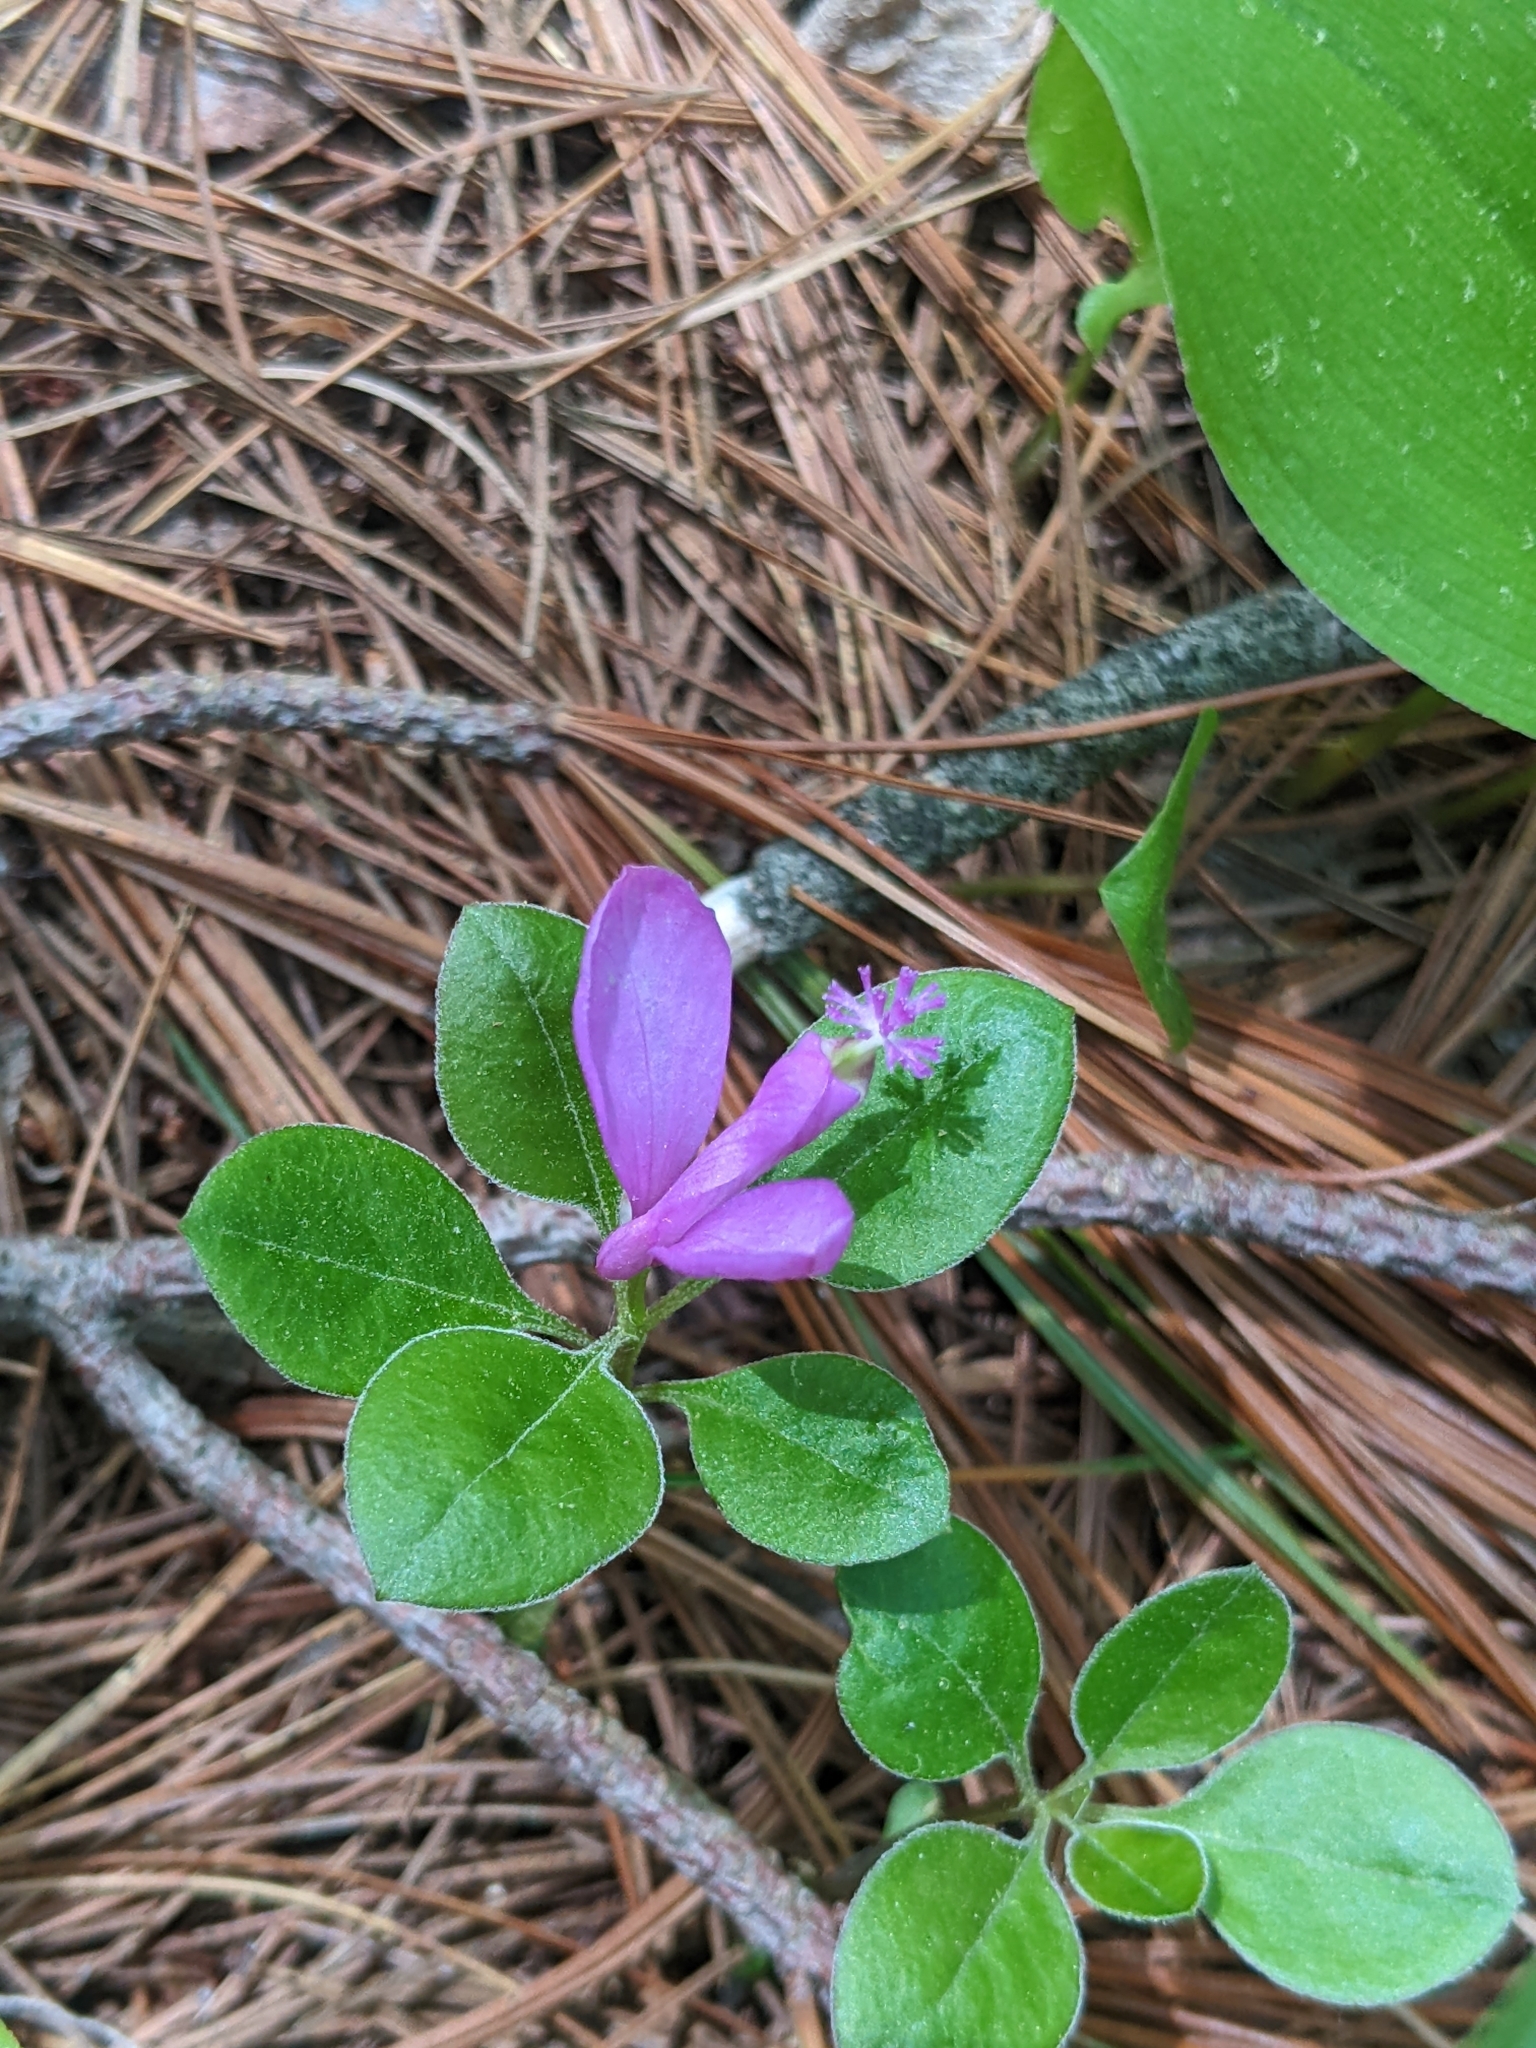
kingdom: Plantae
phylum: Tracheophyta
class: Magnoliopsida
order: Fabales
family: Polygalaceae
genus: Polygaloides
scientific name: Polygaloides paucifolia
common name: Bird-on-the-wing
